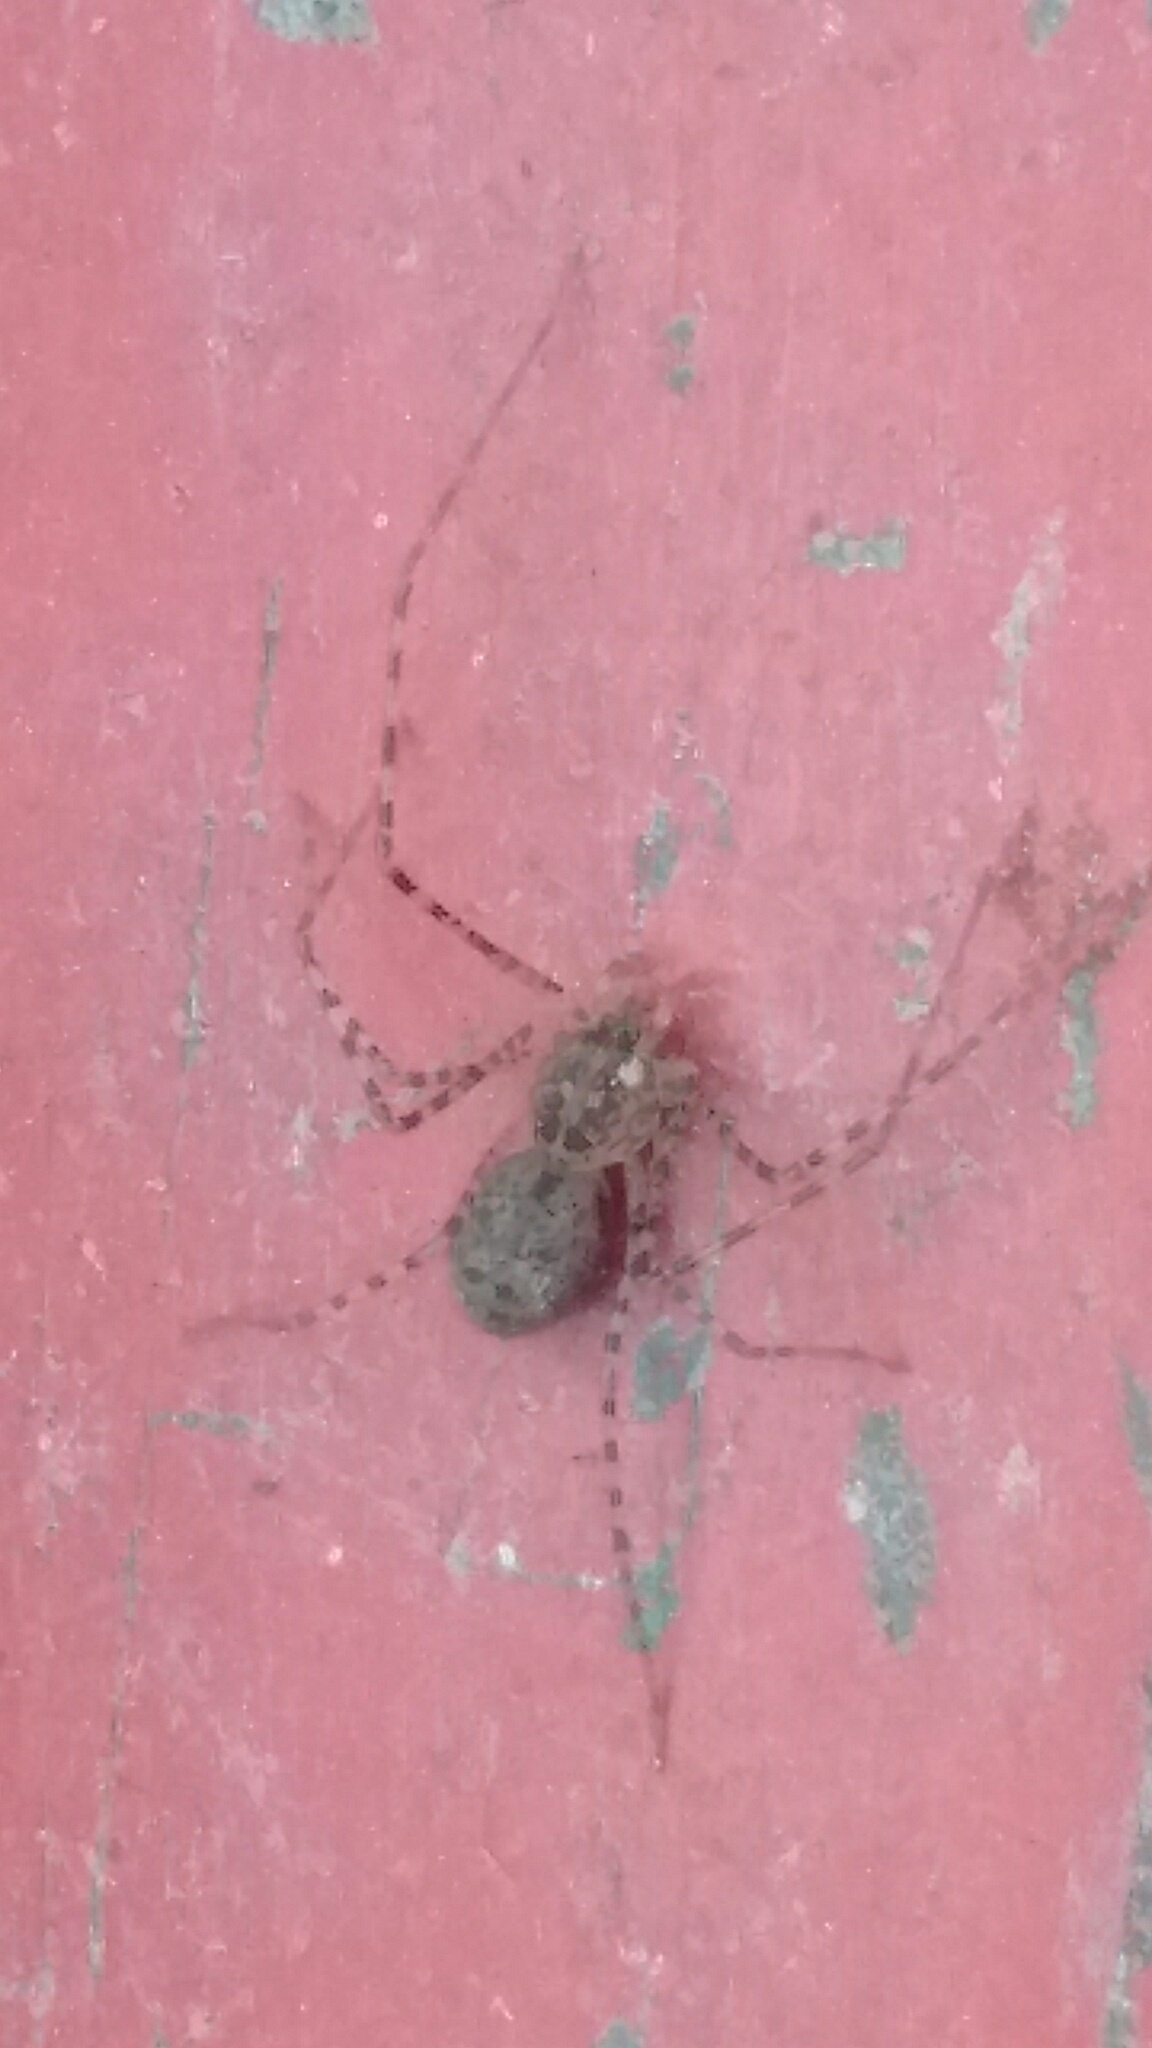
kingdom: Animalia
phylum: Arthropoda
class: Arachnida
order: Araneae
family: Scytodidae
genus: Scytodes
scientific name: Scytodes globula
